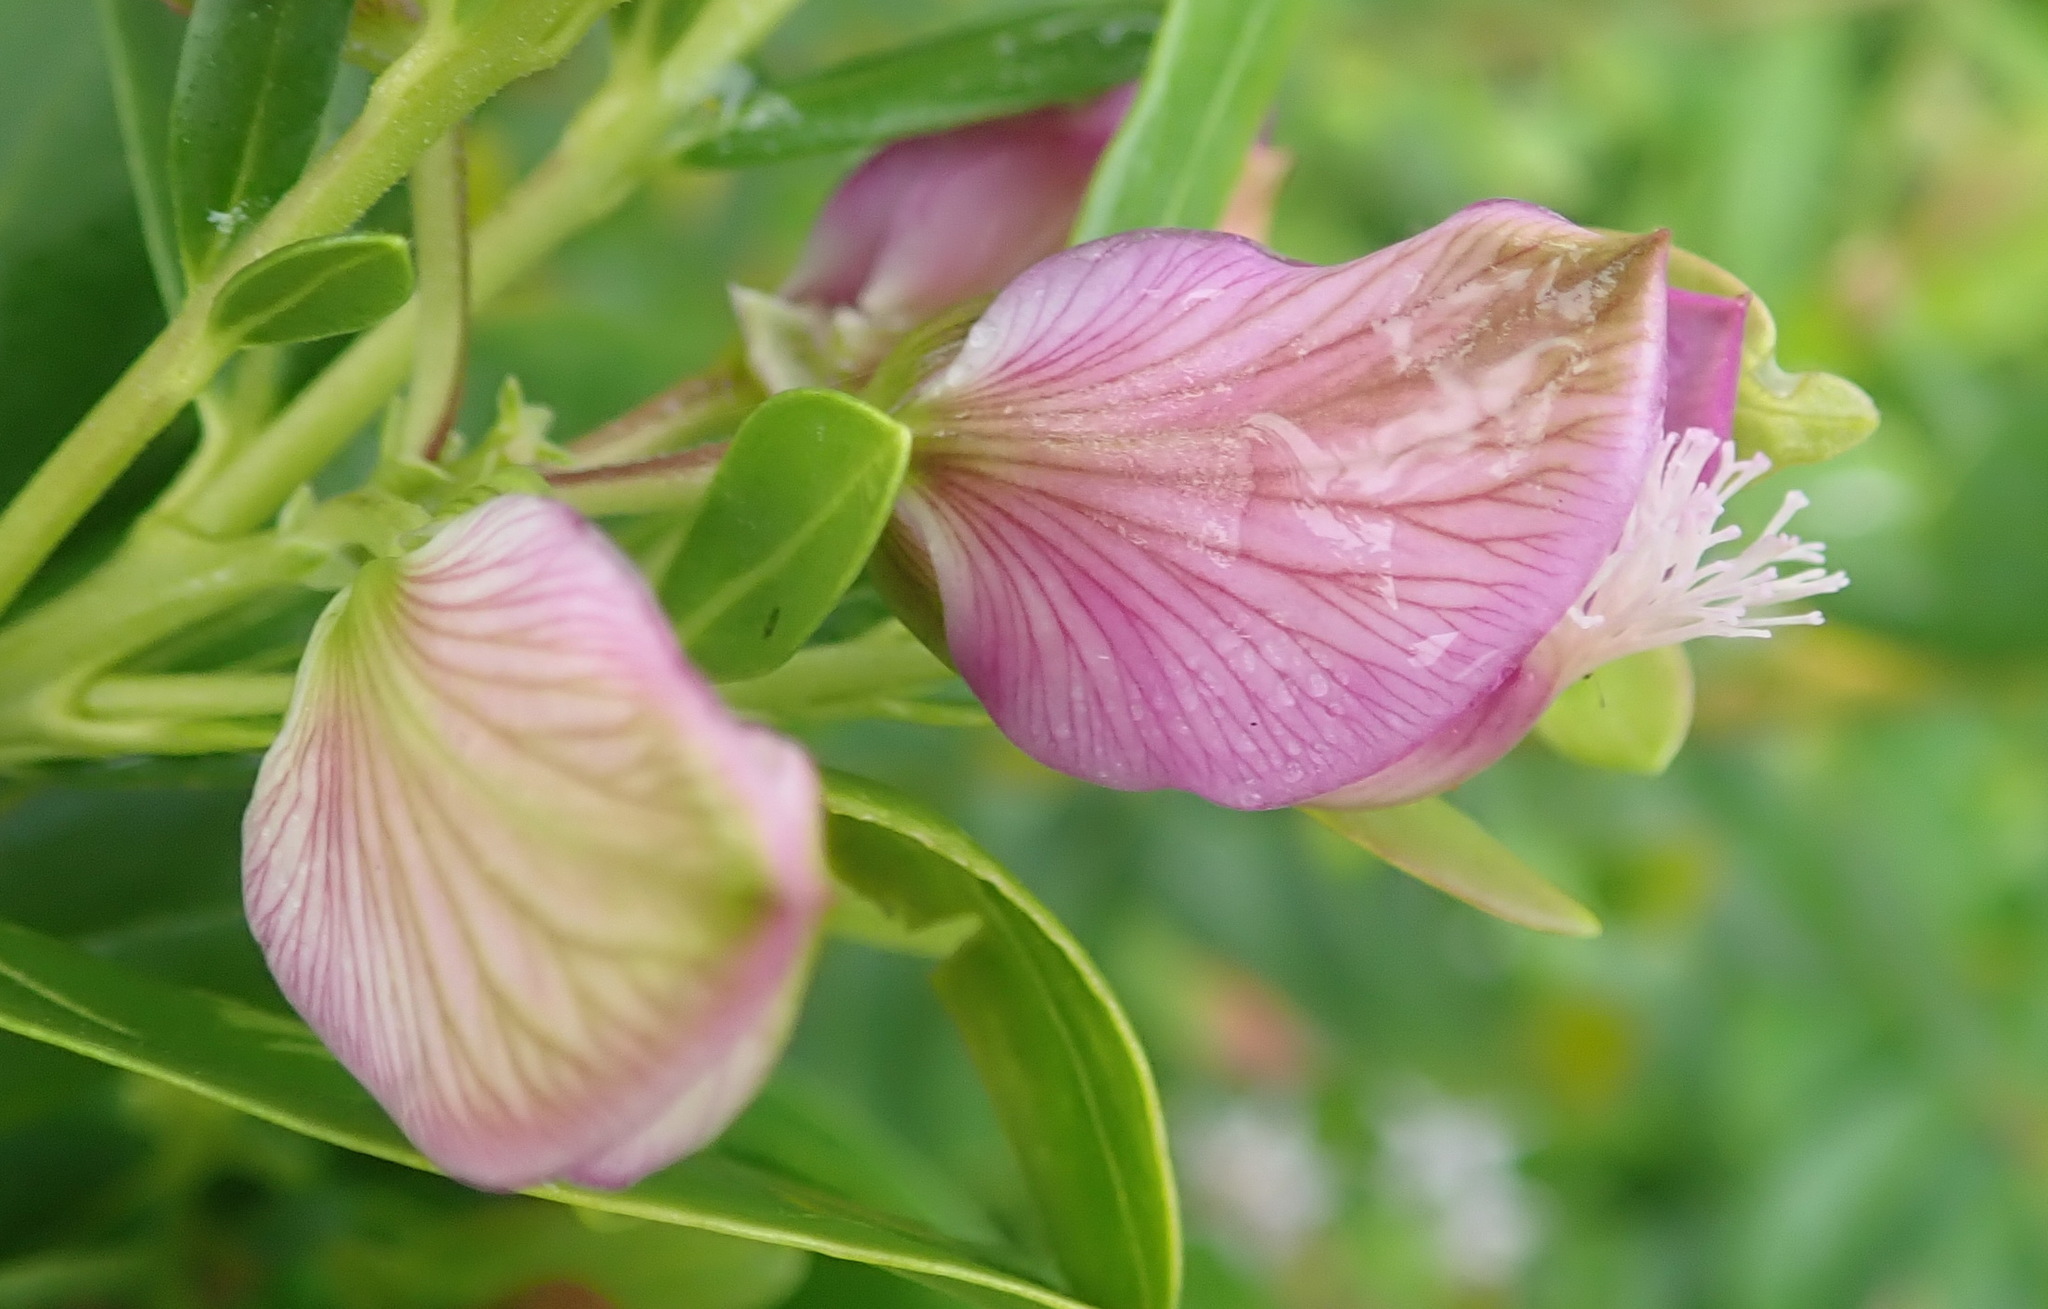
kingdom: Plantae
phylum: Tracheophyta
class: Magnoliopsida
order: Fabales
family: Polygalaceae
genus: Polygala
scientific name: Polygala myrtifolia
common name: Myrtle-leaf milkwort
